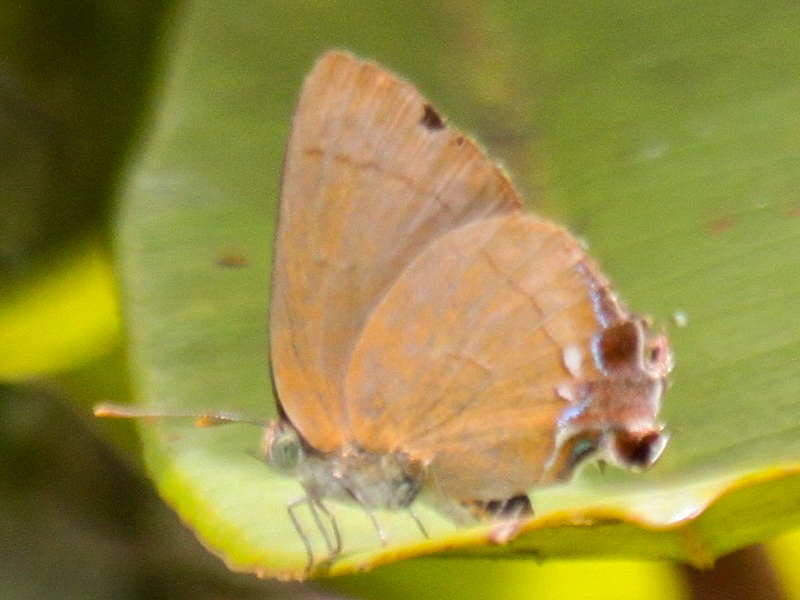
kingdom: Animalia
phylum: Arthropoda
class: Insecta
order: Lepidoptera
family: Lycaenidae
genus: Remelana
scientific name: Remelana jangala
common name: Chocolate royal
